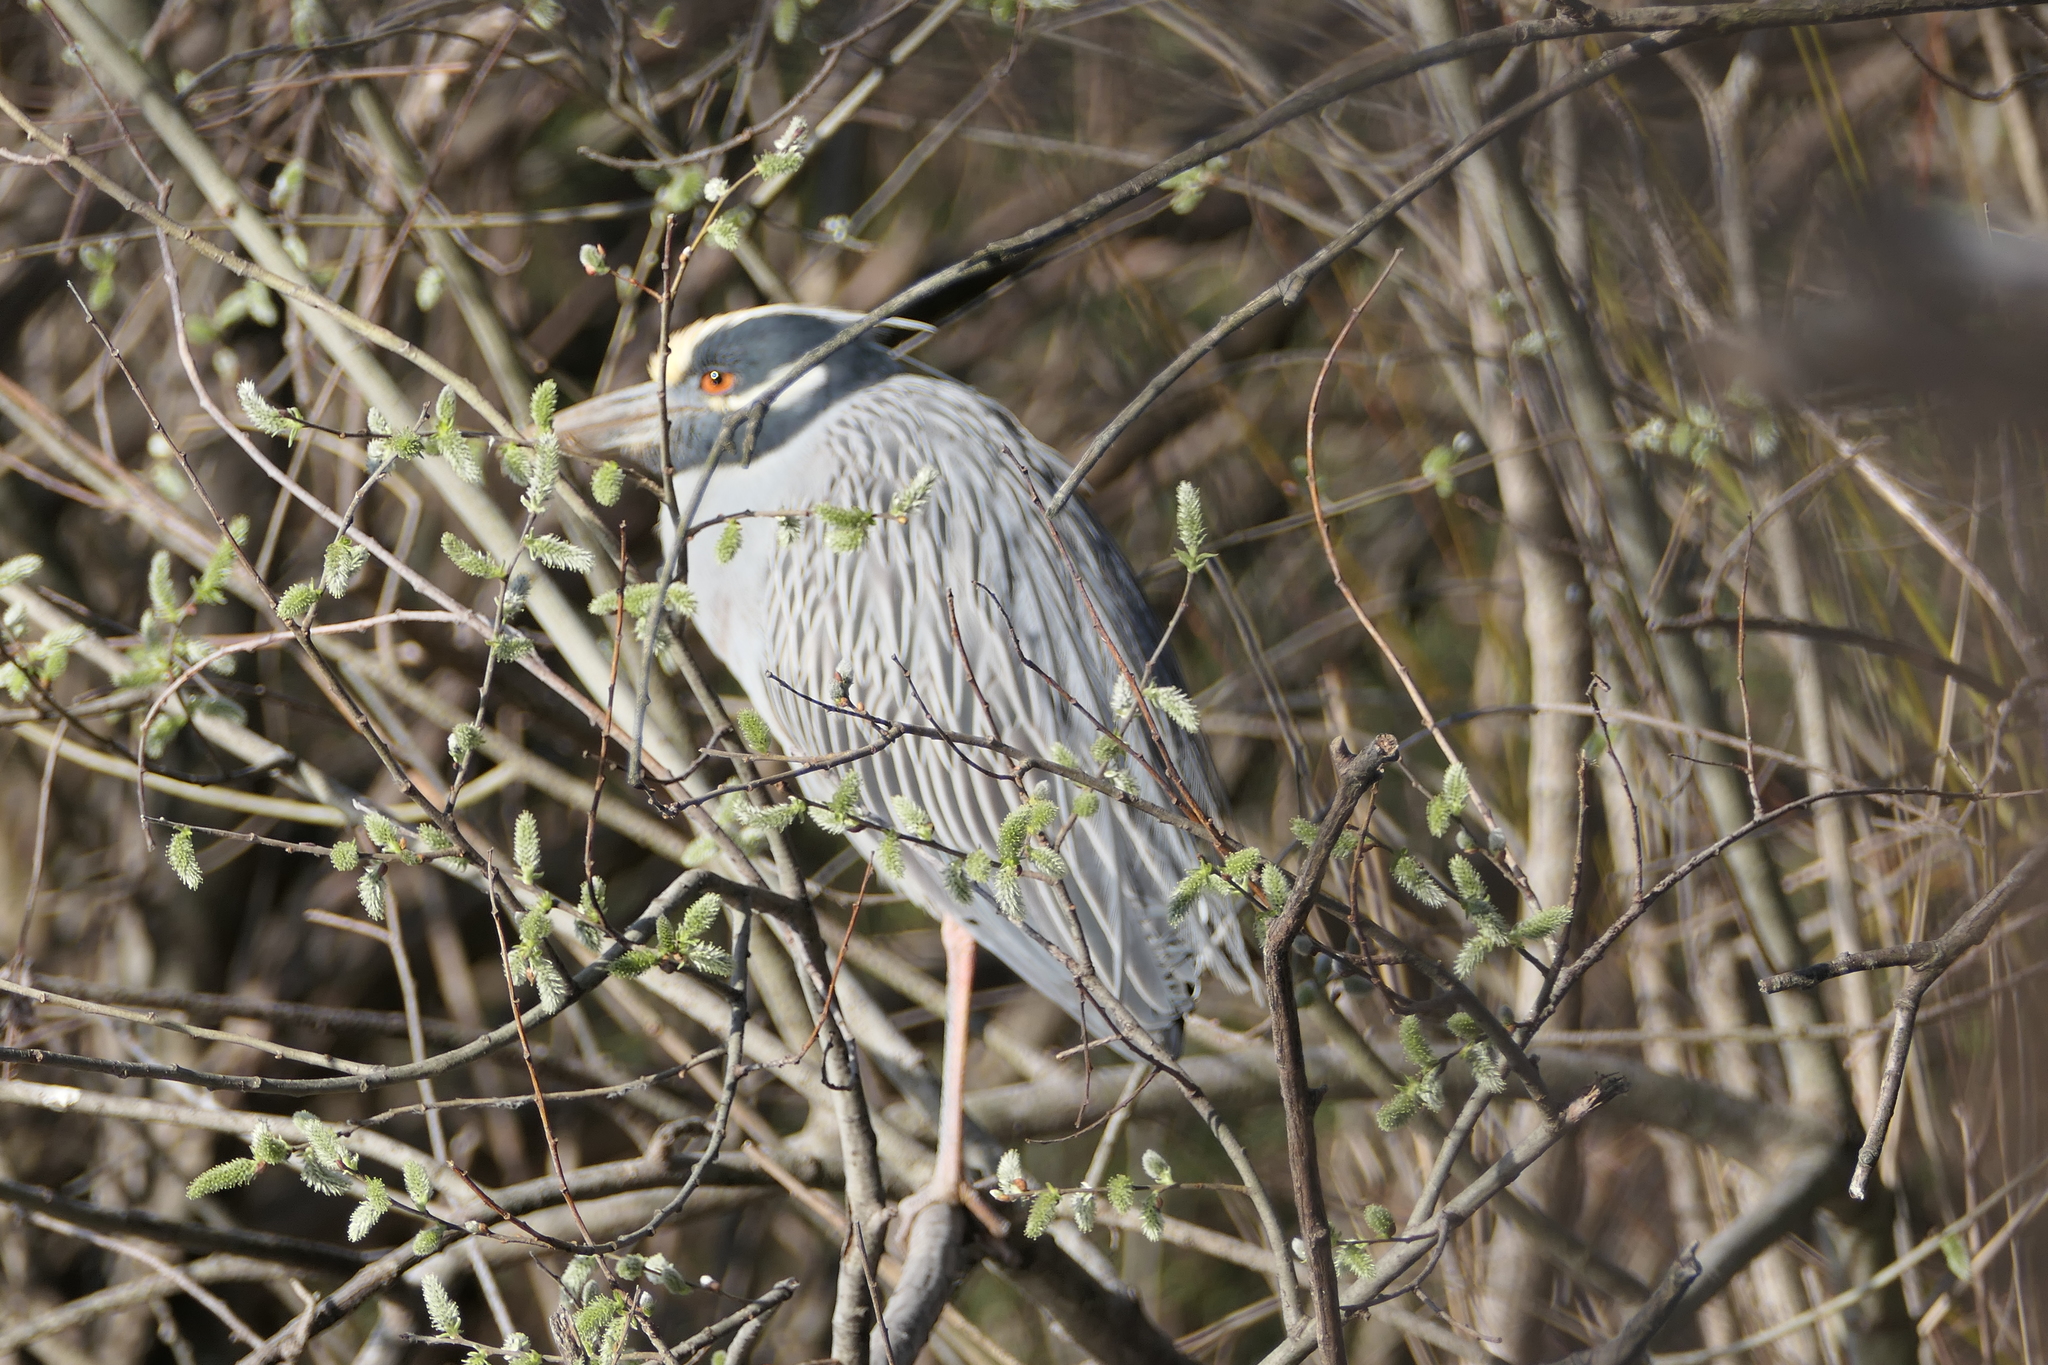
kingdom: Animalia
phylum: Chordata
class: Aves
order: Pelecaniformes
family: Ardeidae
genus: Nyctanassa
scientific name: Nyctanassa violacea
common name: Yellow-crowned night heron
